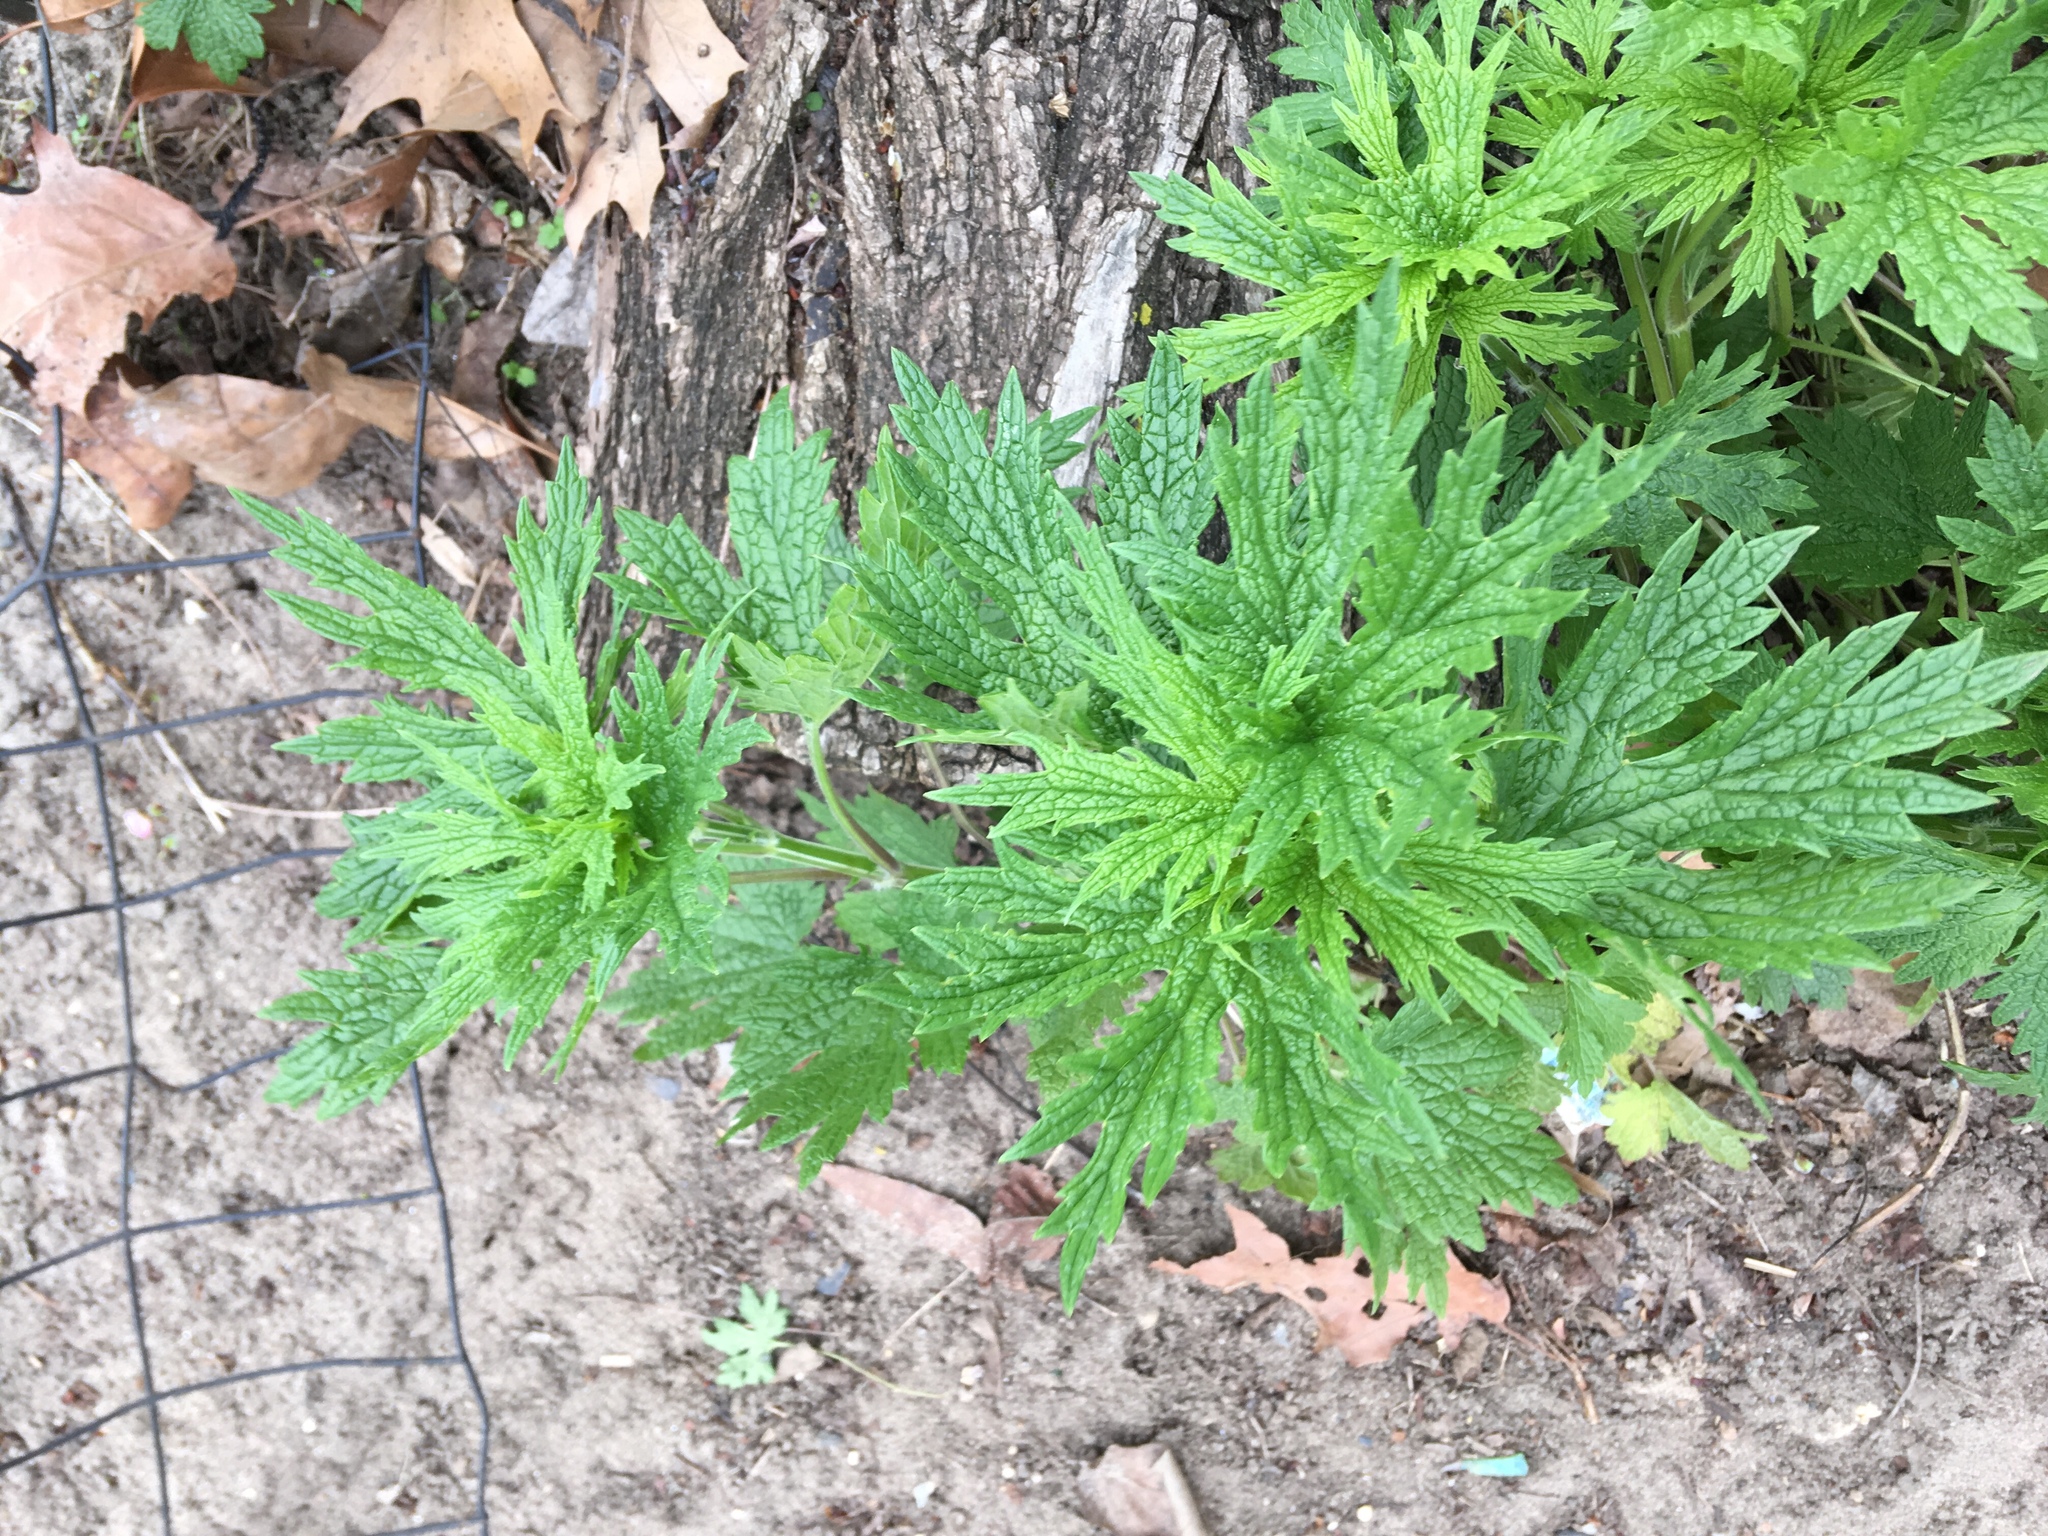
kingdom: Plantae
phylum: Tracheophyta
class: Magnoliopsida
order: Lamiales
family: Lamiaceae
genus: Leonurus
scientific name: Leonurus cardiaca
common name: Motherwort
